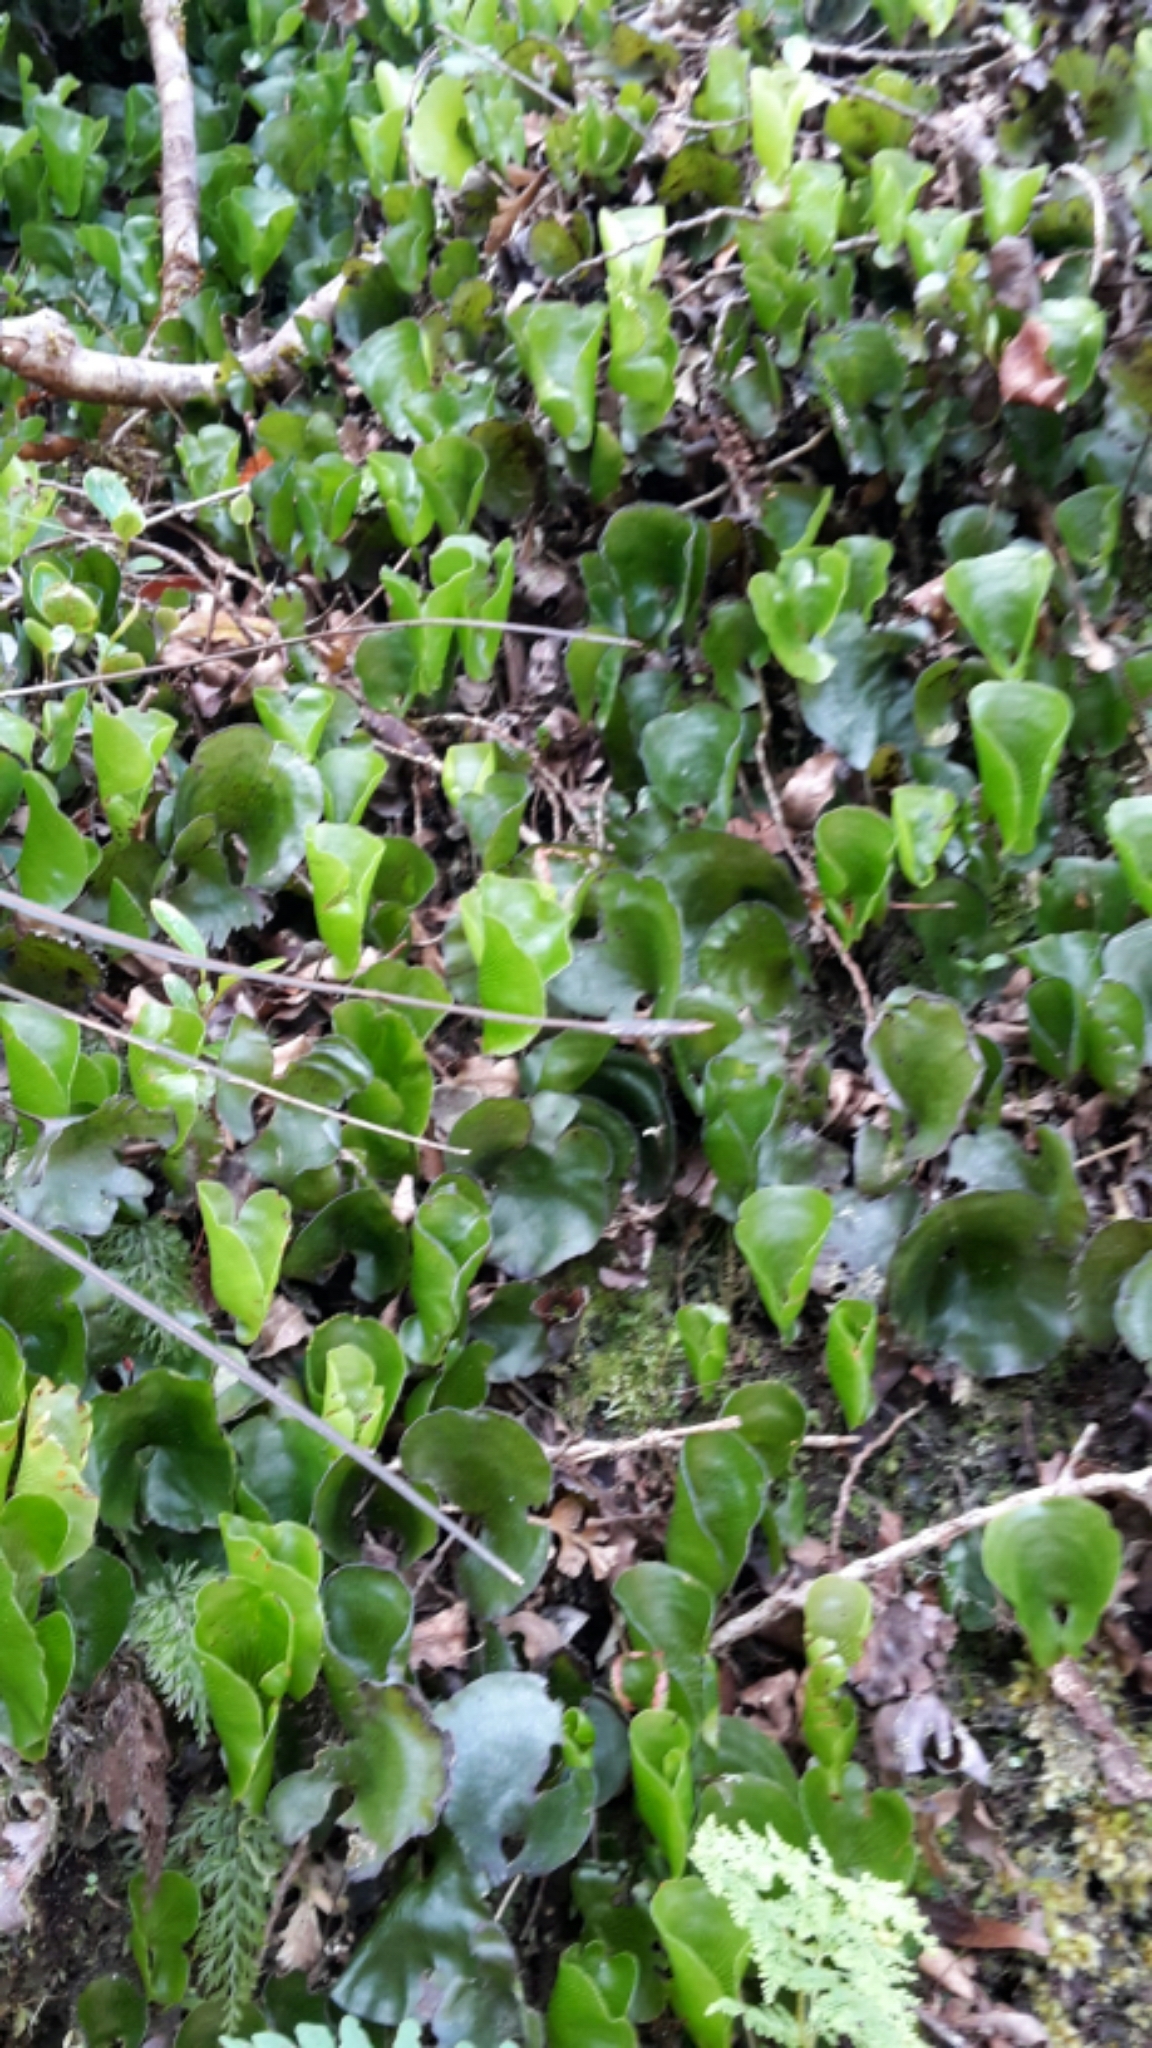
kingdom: Plantae
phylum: Tracheophyta
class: Polypodiopsida
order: Hymenophyllales
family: Hymenophyllaceae
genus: Hymenophyllum
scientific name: Hymenophyllum nephrophyllum
